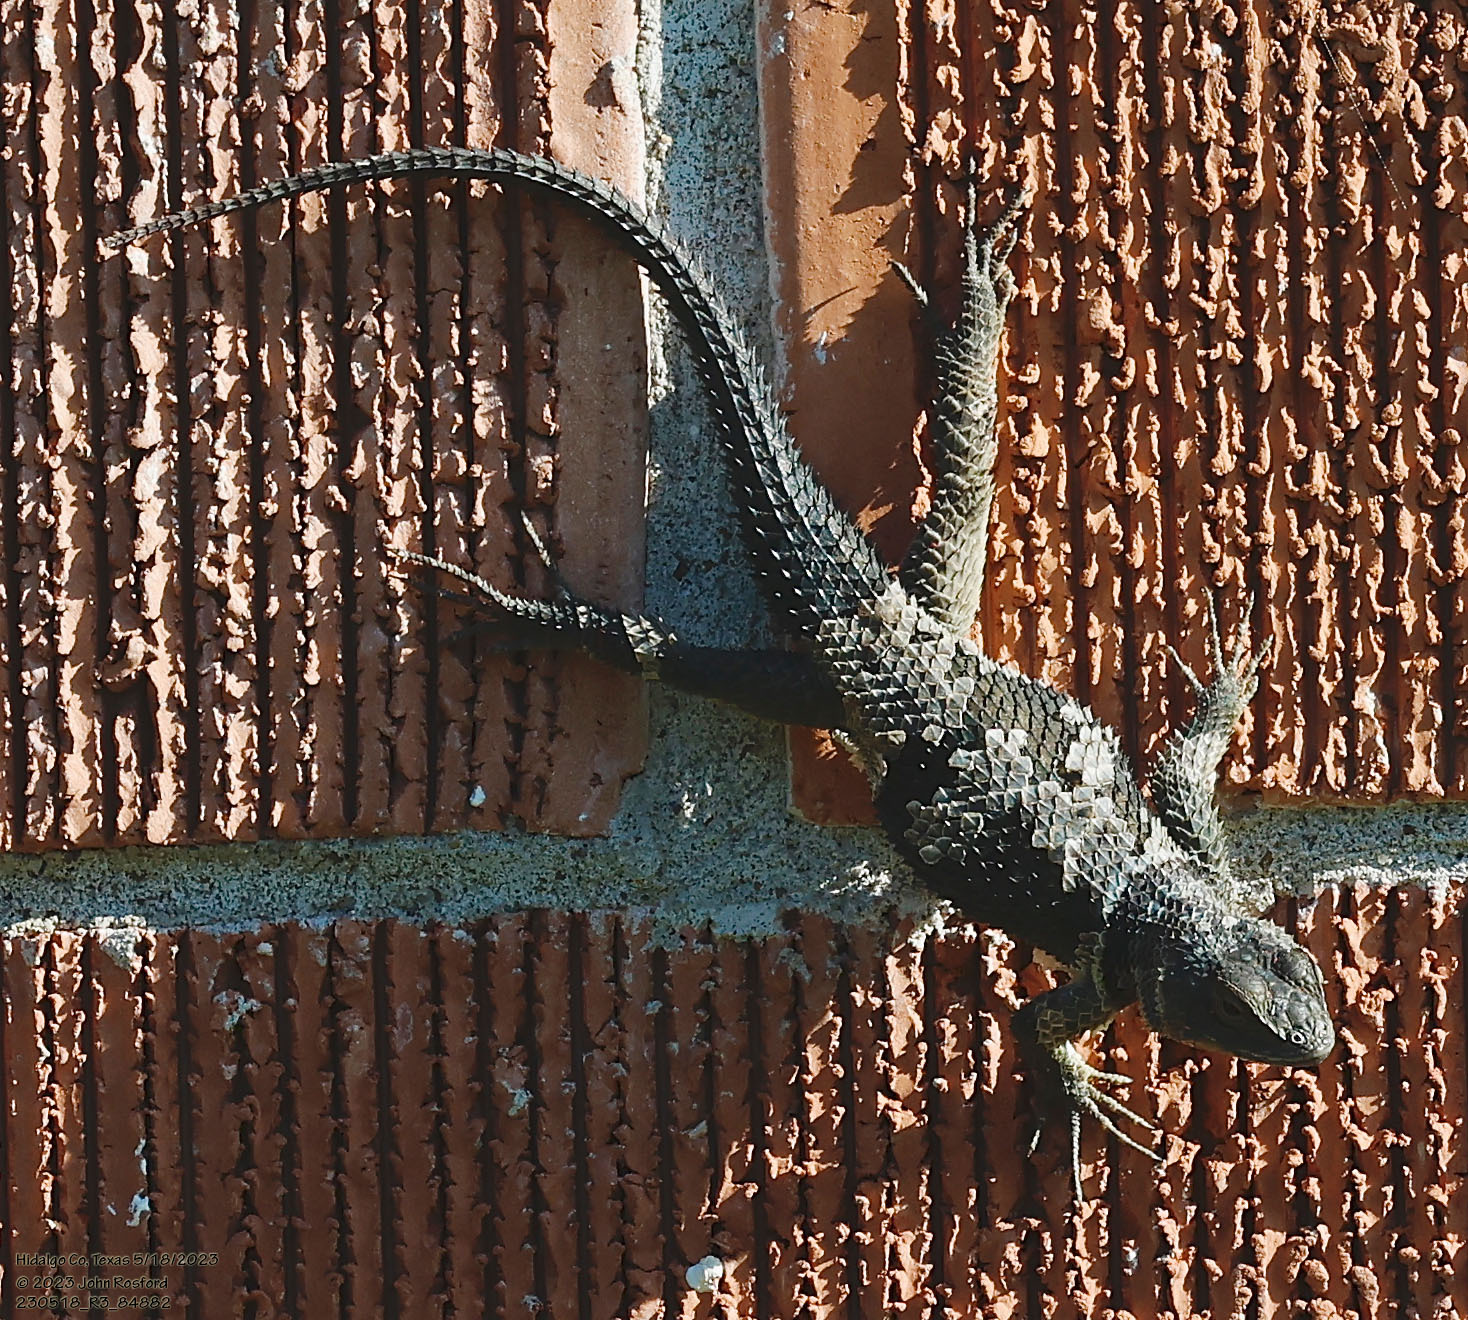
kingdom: Animalia
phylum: Chordata
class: Squamata
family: Phrynosomatidae
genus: Sceloporus
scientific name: Sceloporus cyanogenys
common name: Blue spiny lizard
